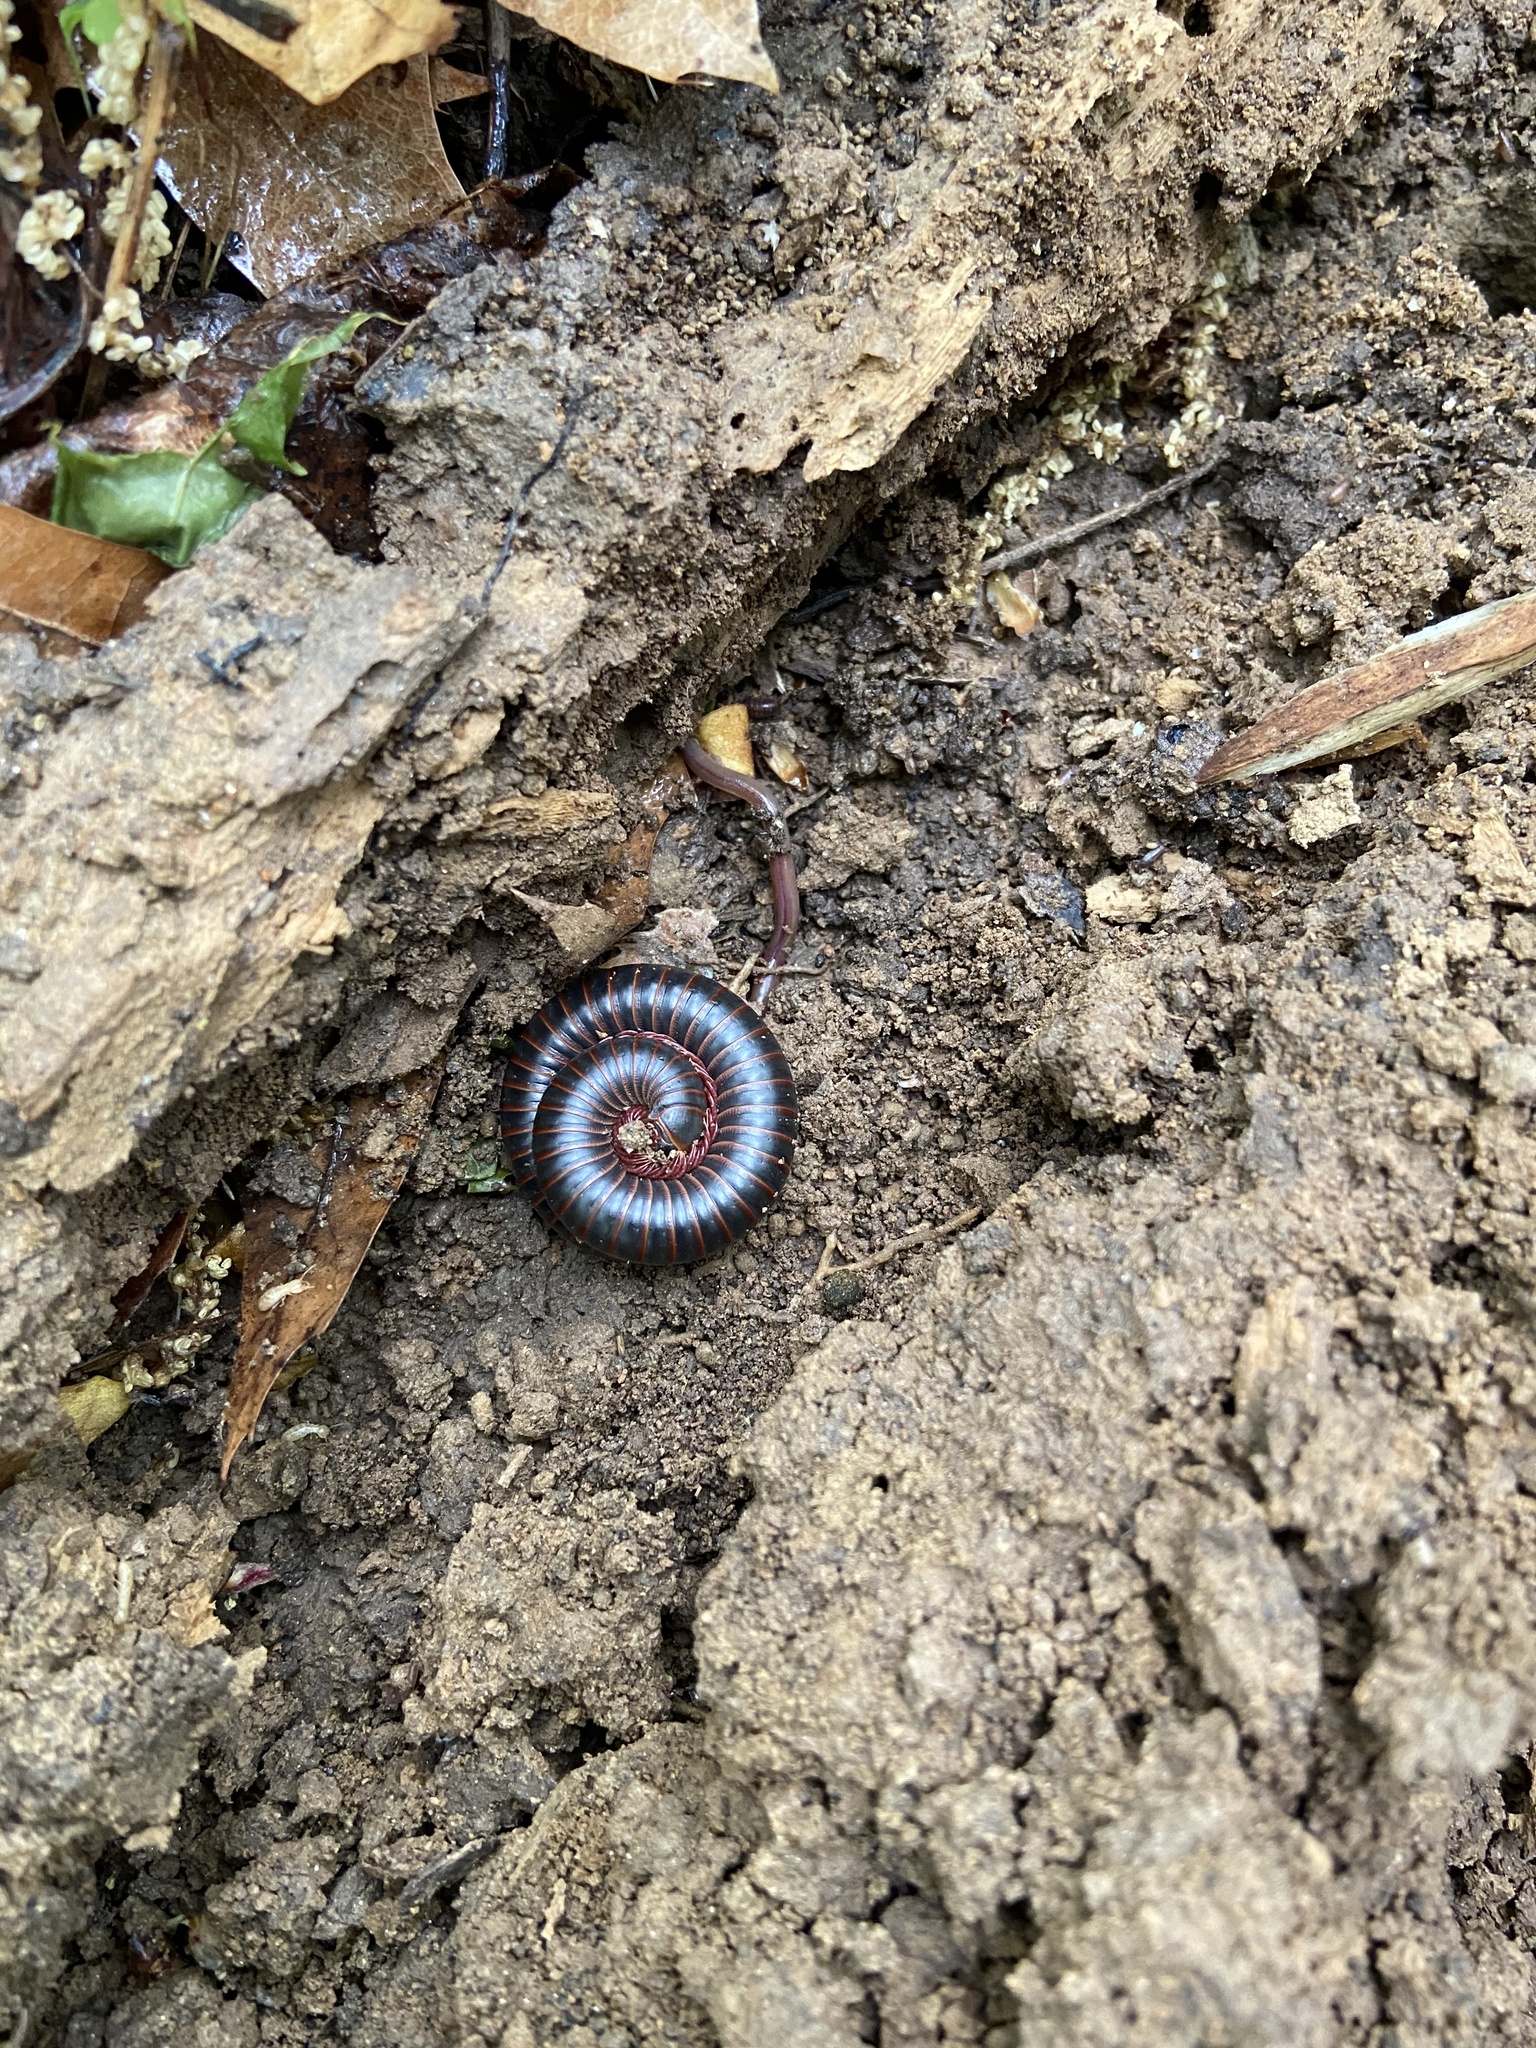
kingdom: Animalia
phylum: Arthropoda
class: Diplopoda
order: Spirobolida
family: Spirobolidae
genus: Narceus
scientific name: Narceus
